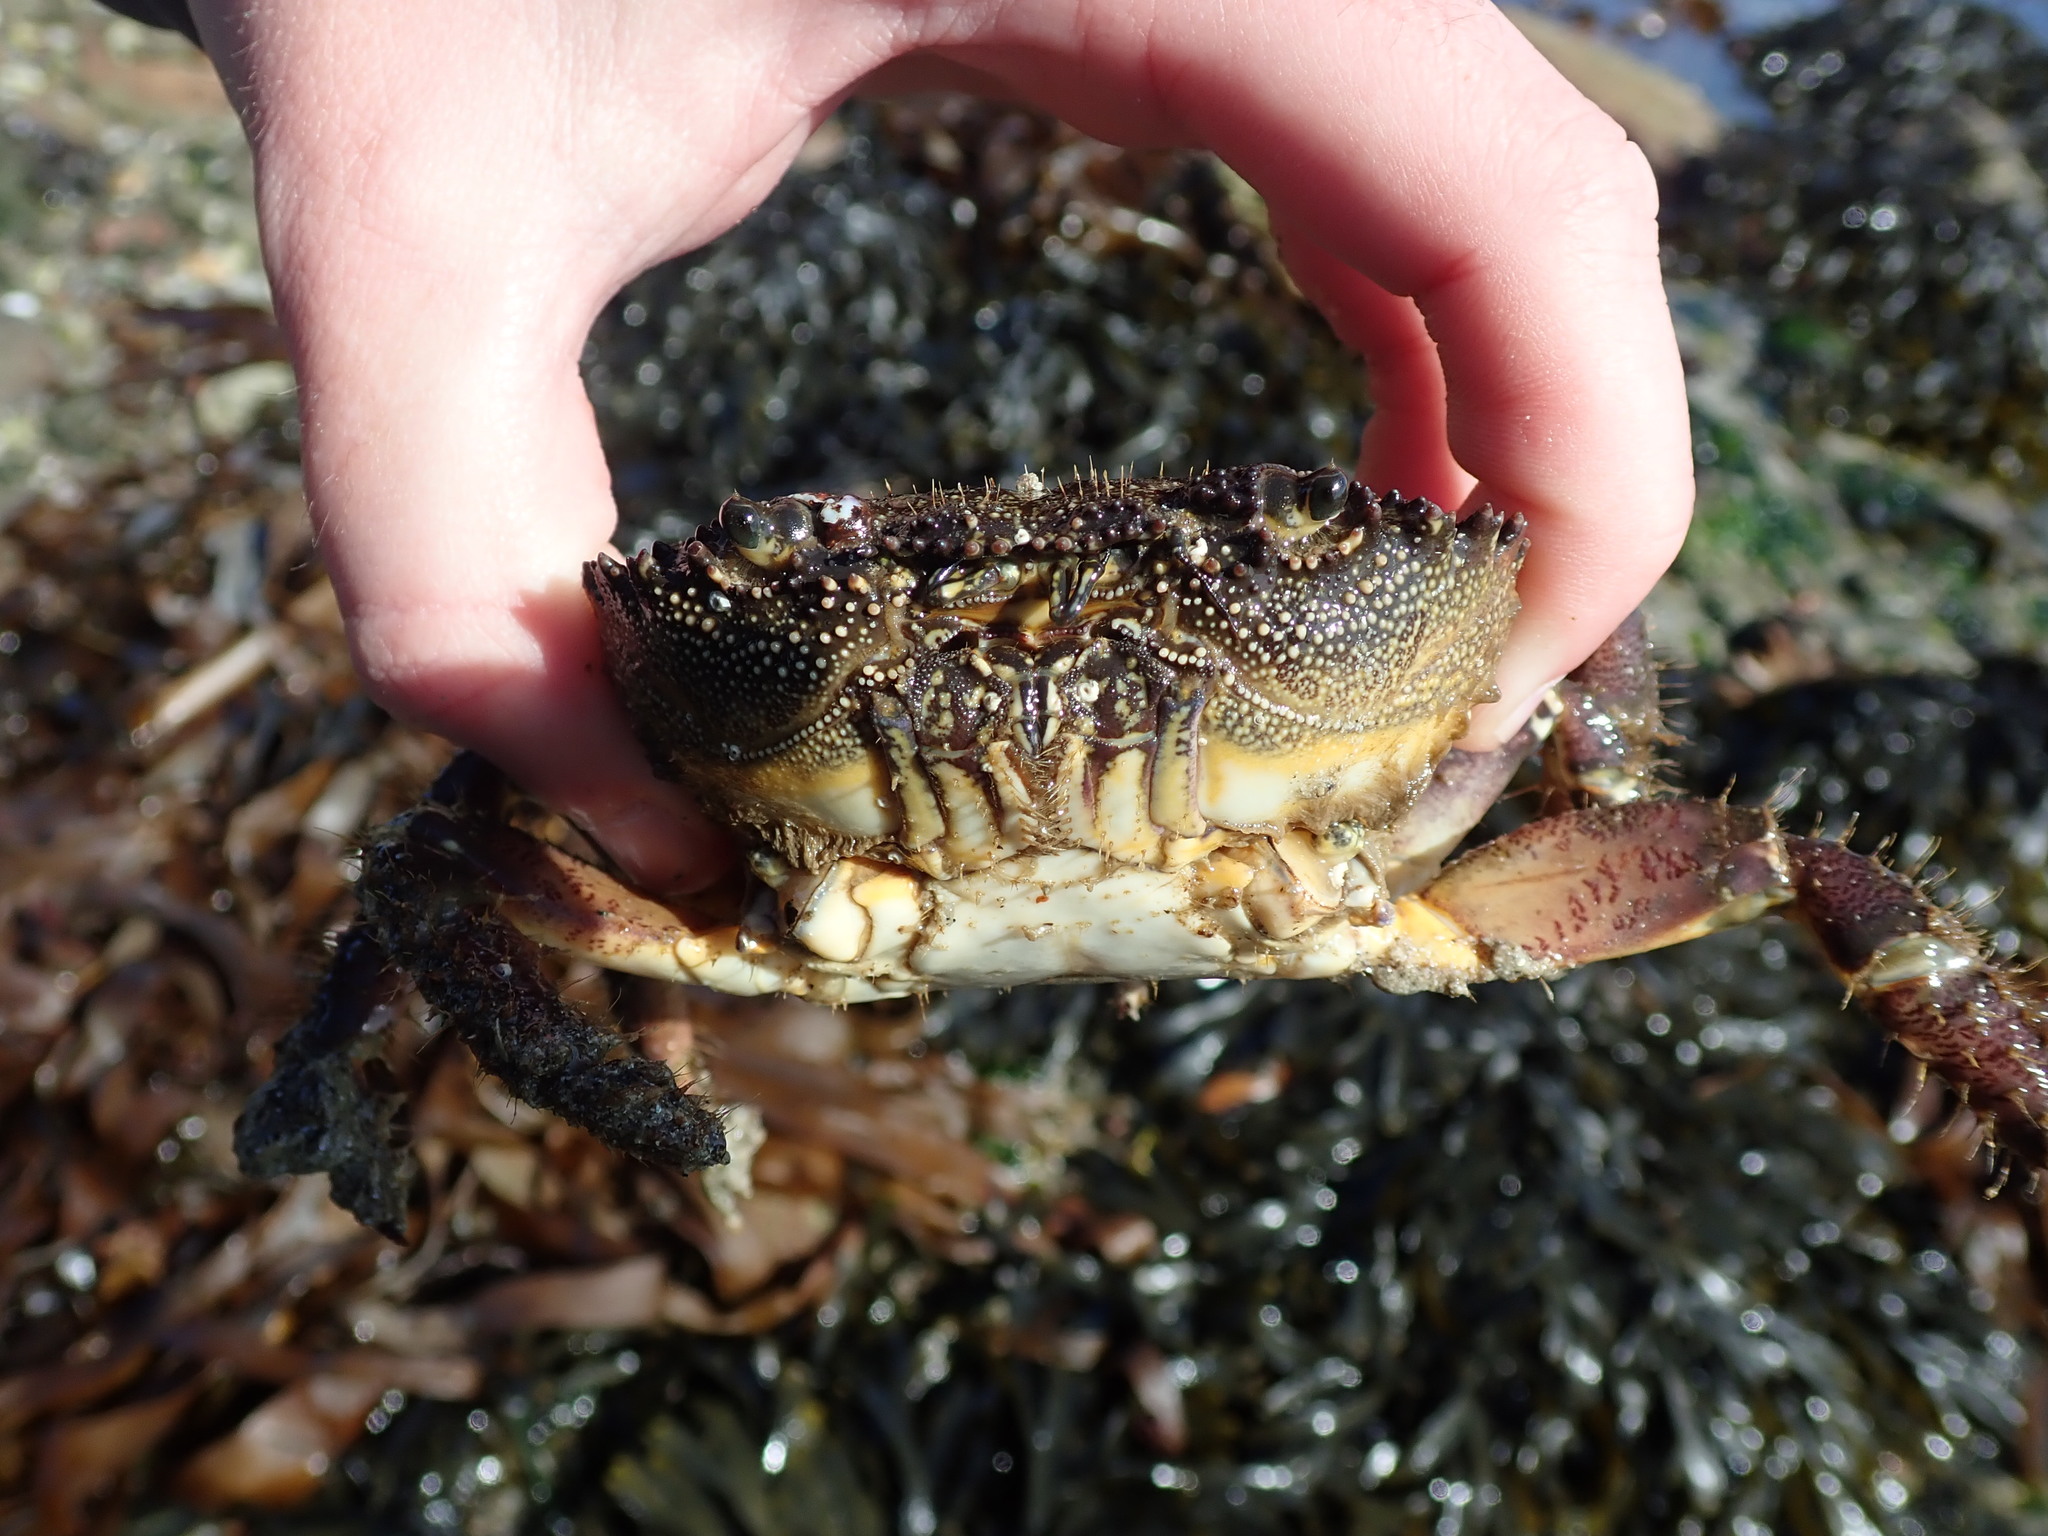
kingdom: Animalia
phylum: Arthropoda
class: Malacostraca
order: Decapoda
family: Eriphiidae
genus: Eriphia
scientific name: Eriphia verrucosa
